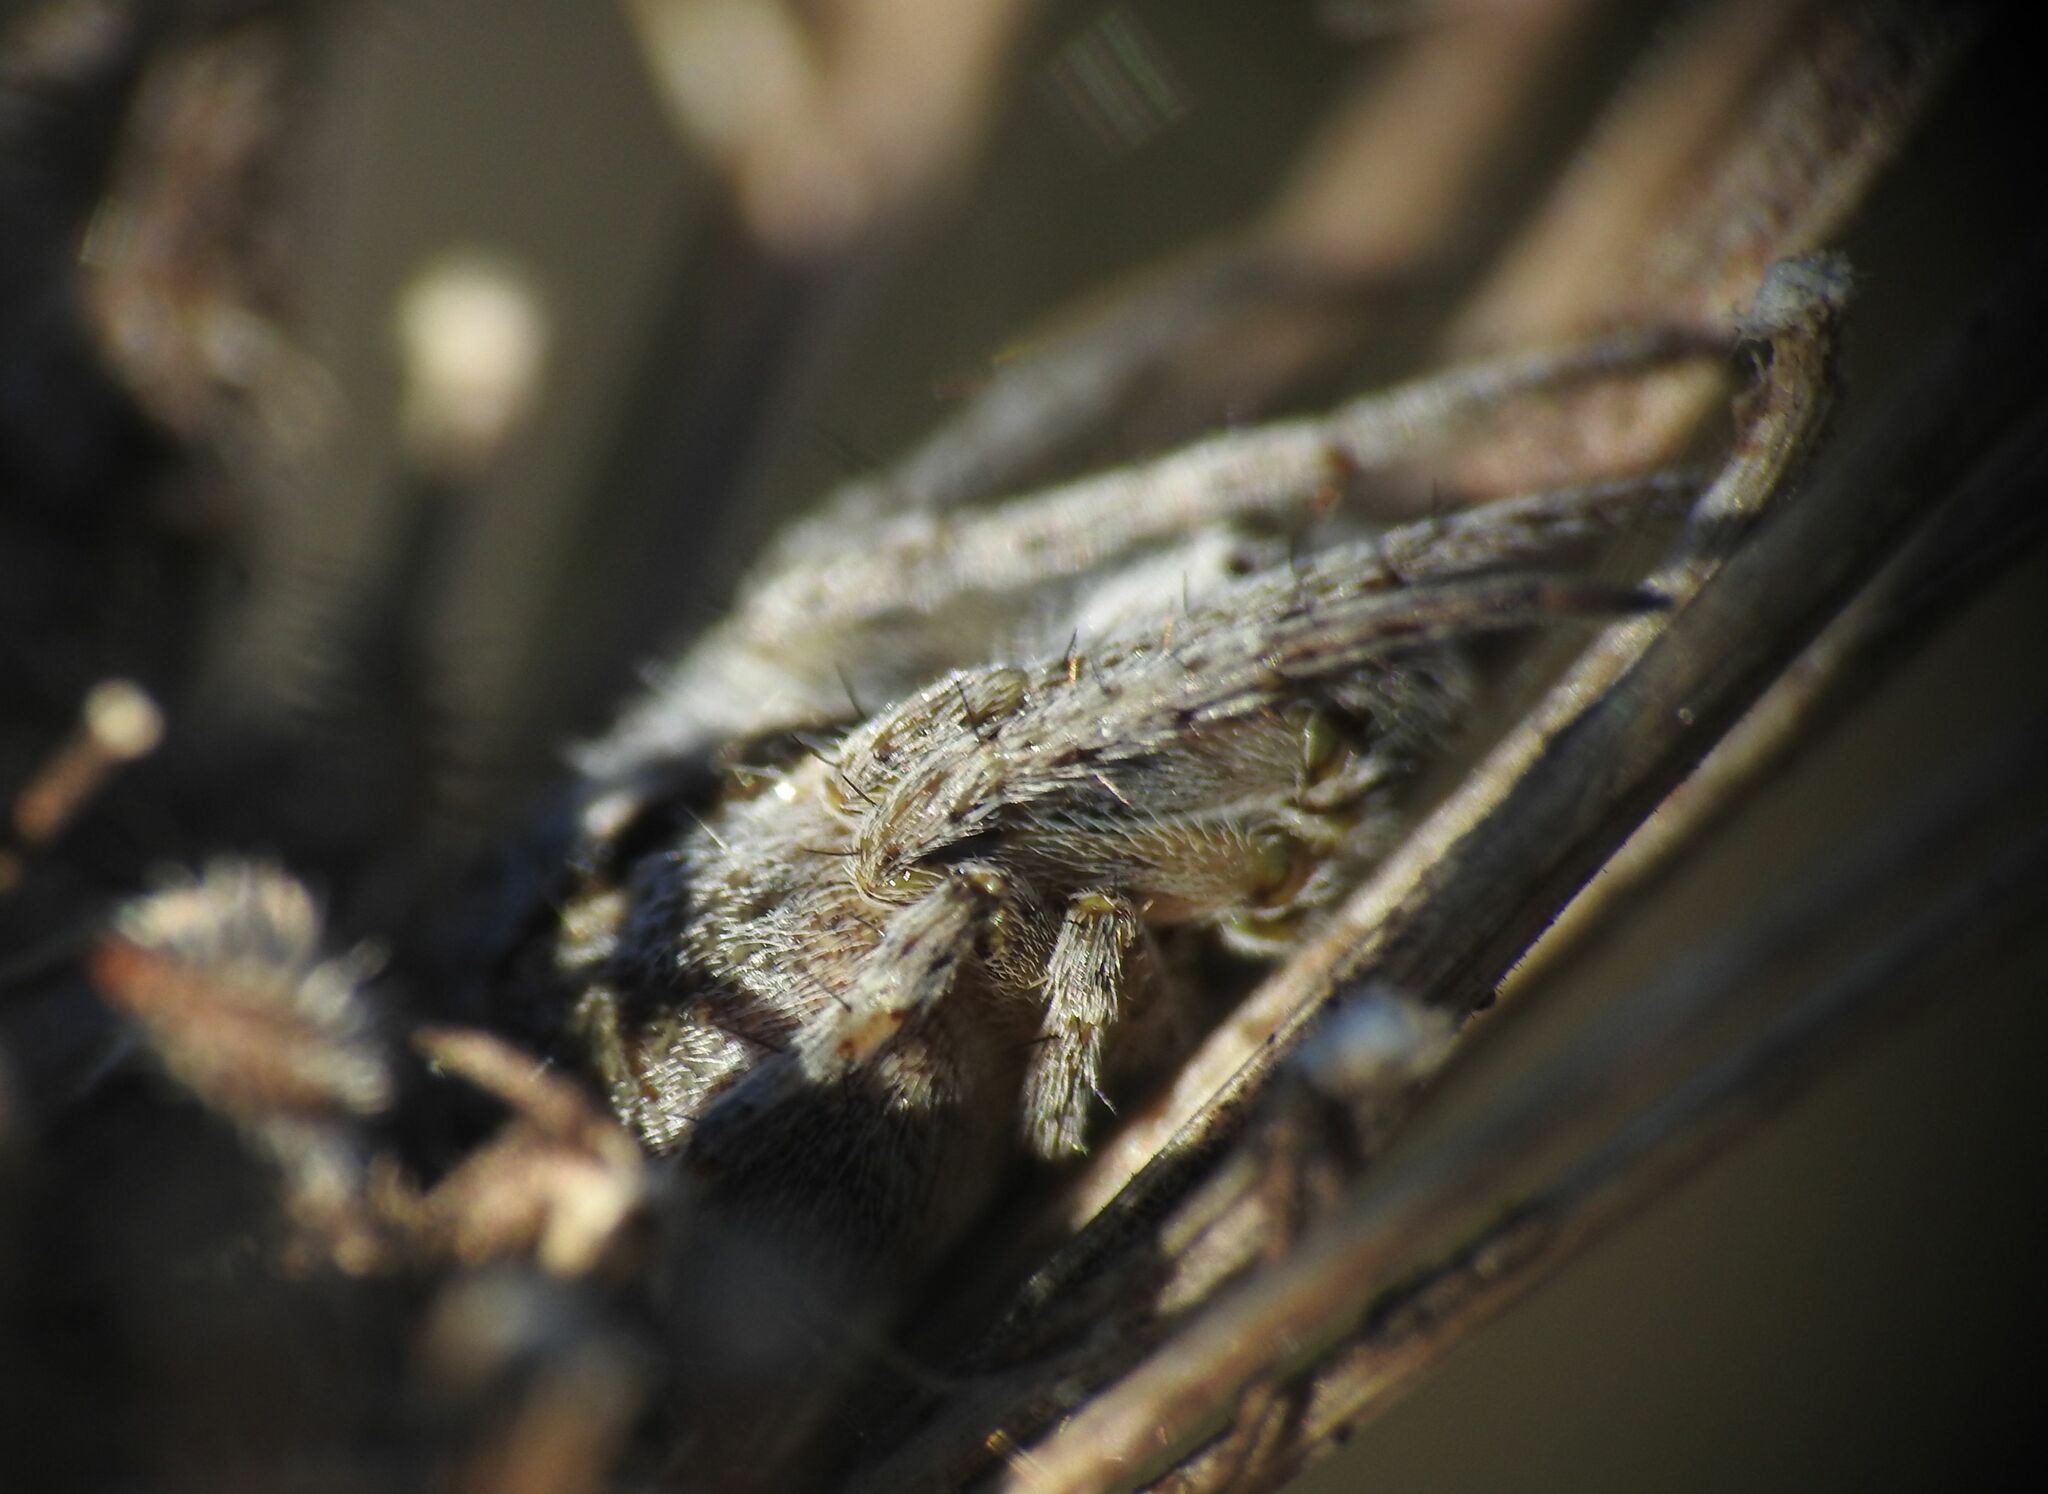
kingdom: Animalia
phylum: Arthropoda
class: Arachnida
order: Araneae
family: Araneidae
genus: Agalenatea
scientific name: Agalenatea redii
